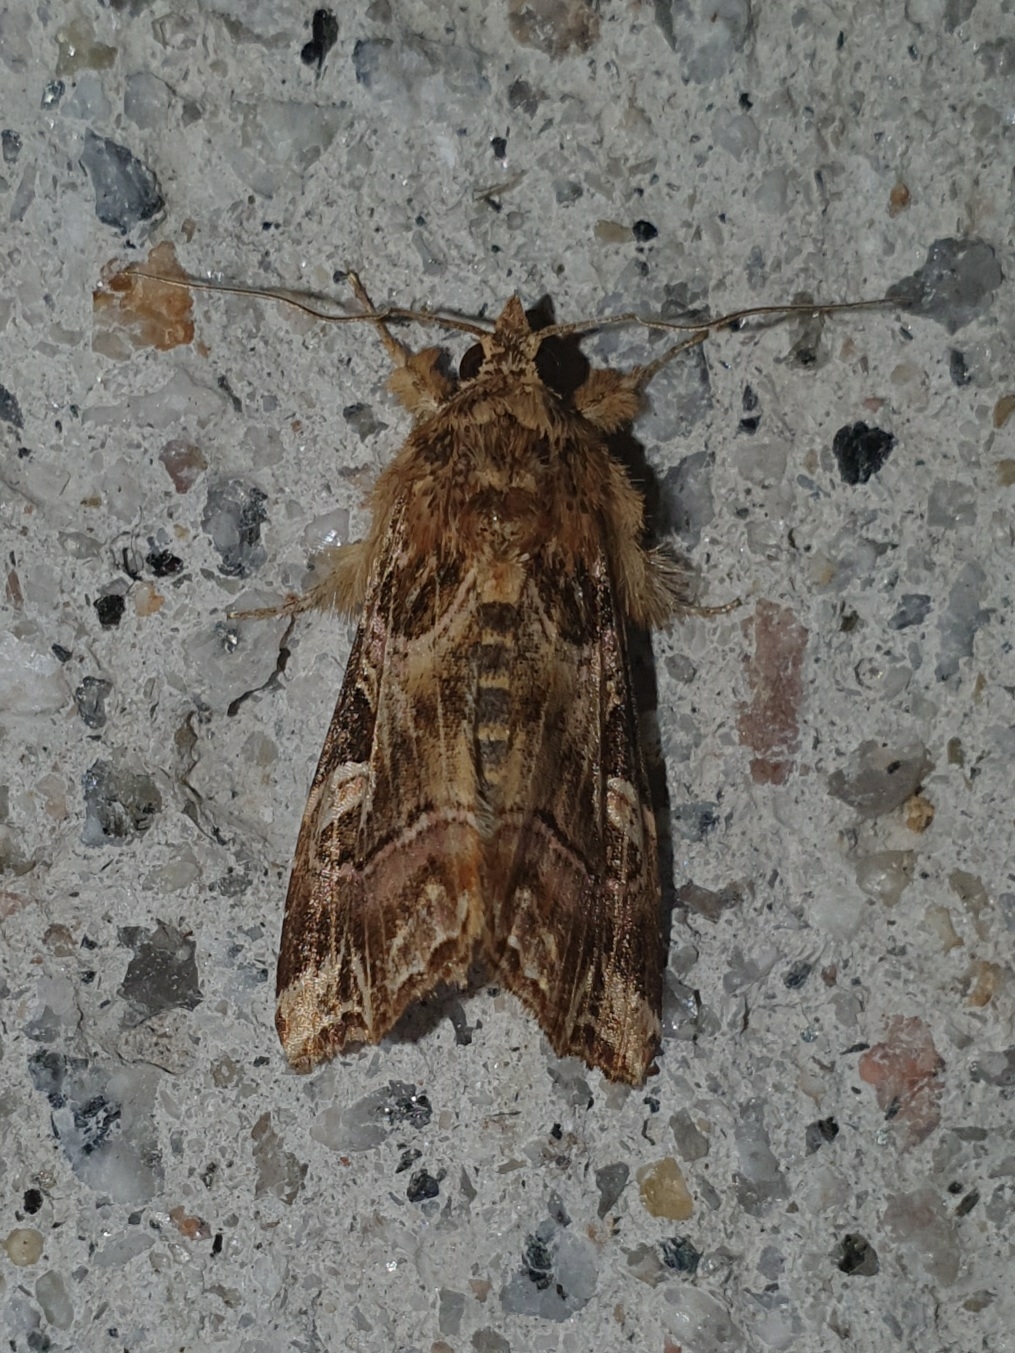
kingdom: Animalia
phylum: Arthropoda
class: Insecta
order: Lepidoptera
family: Noctuidae
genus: Callopistria
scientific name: Callopistria juventina
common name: Latin
